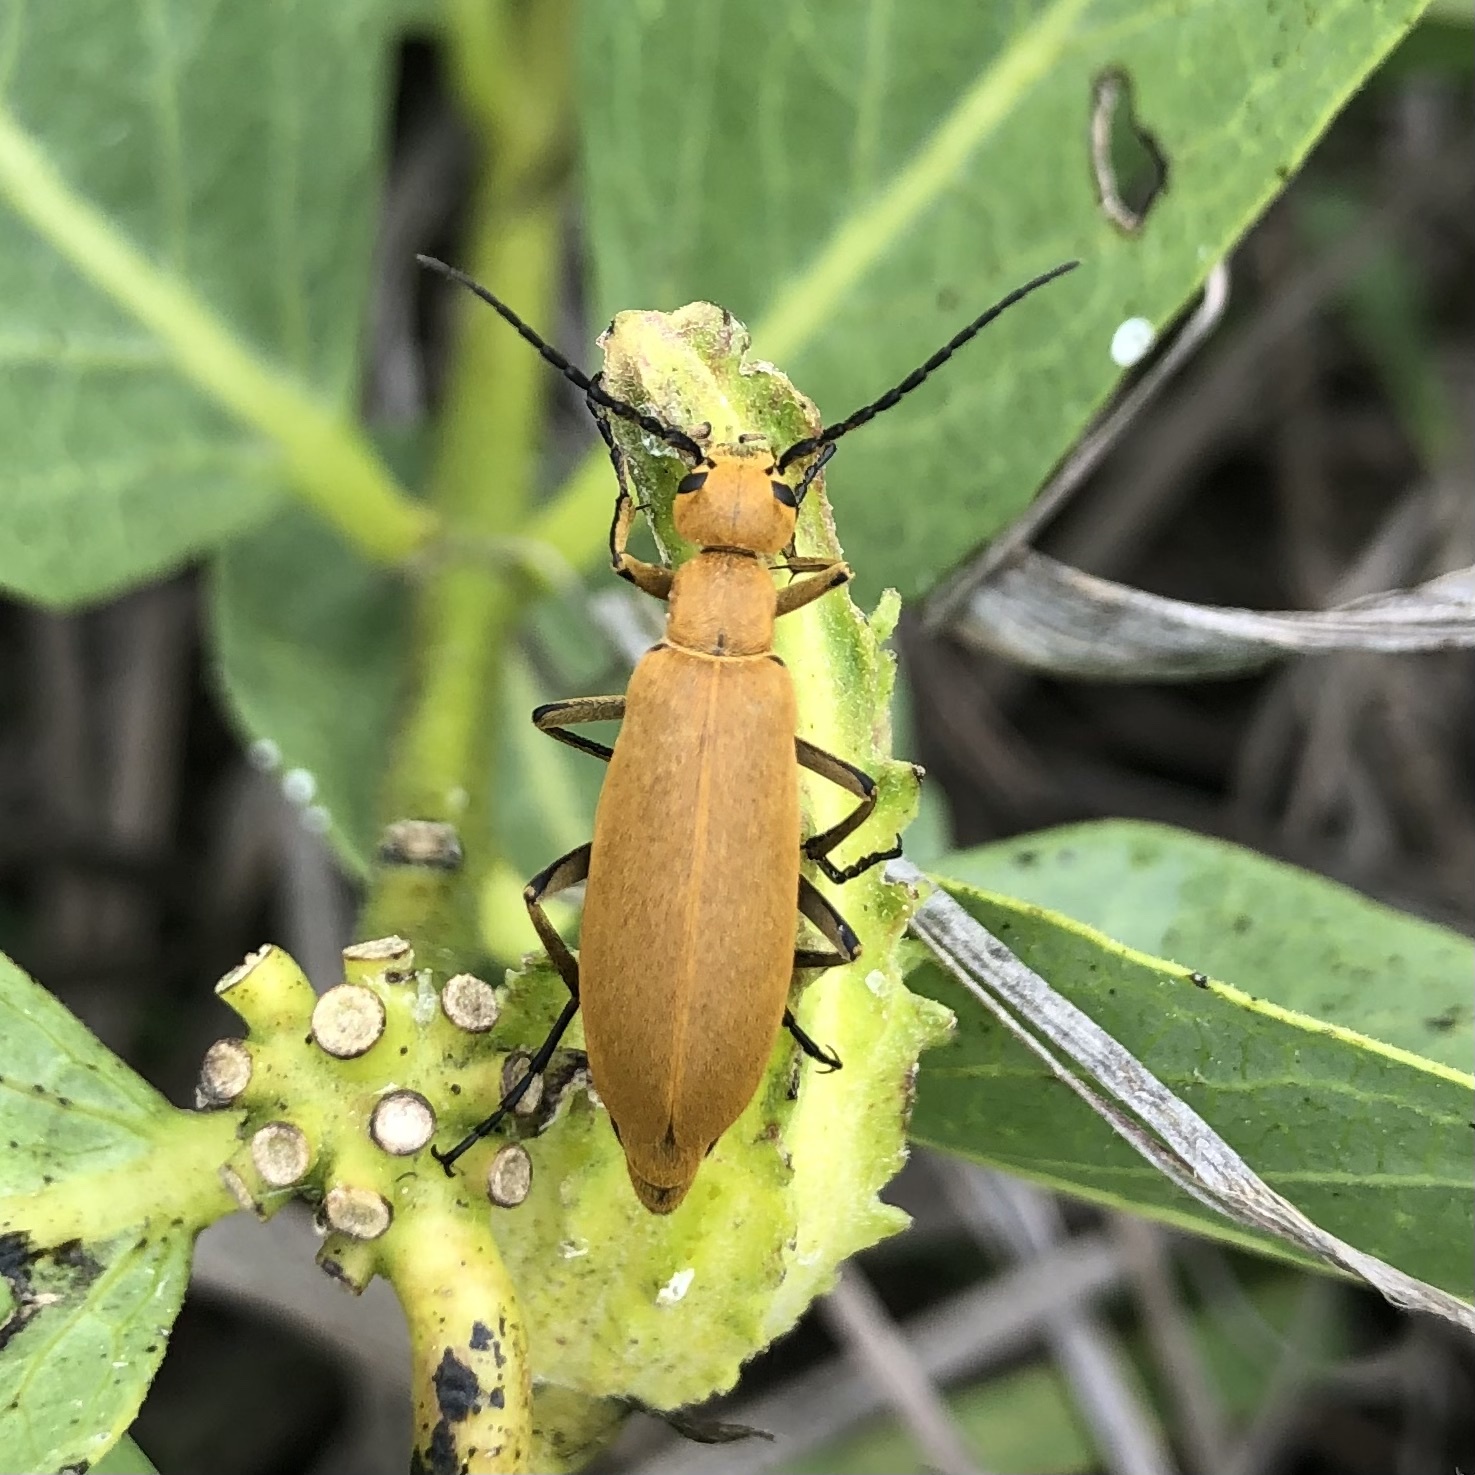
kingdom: Animalia
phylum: Arthropoda
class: Insecta
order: Coleoptera
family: Meloidae
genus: Epicauta
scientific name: Epicauta immaculata
